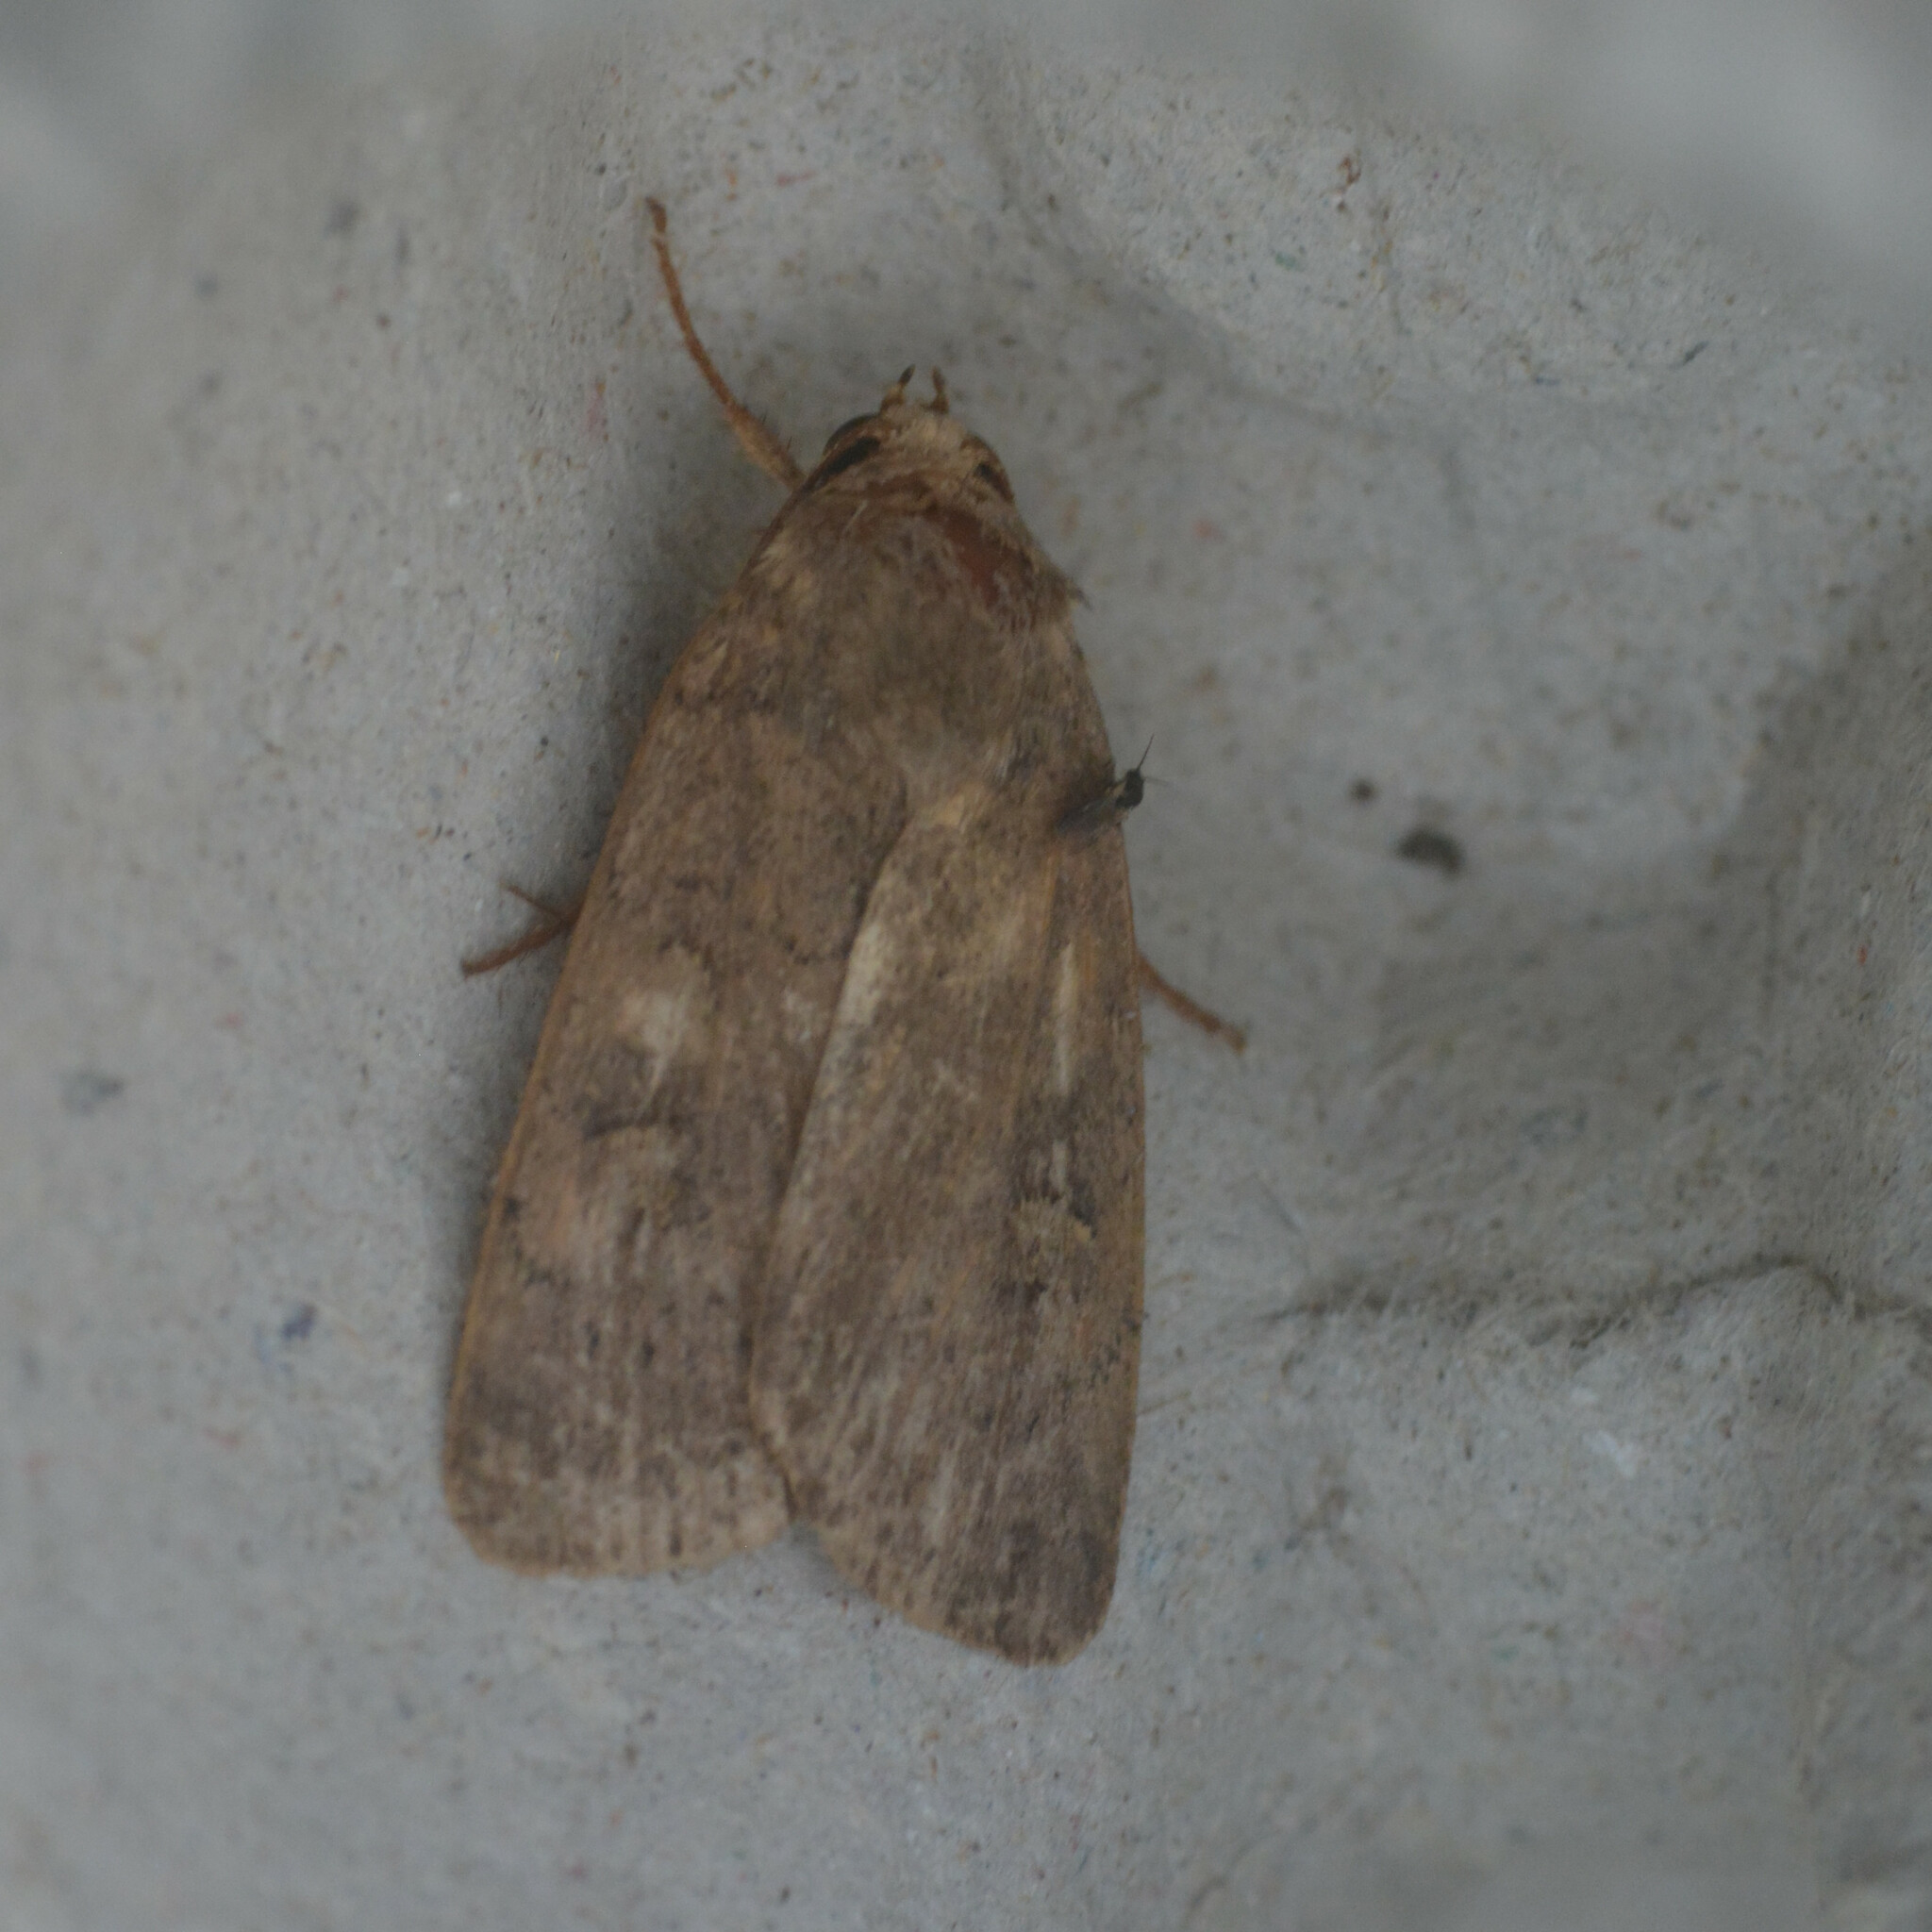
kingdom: Animalia
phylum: Arthropoda
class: Insecta
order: Lepidoptera
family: Noctuidae
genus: Xestia
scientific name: Xestia xanthographa
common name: Square-spot rustic
